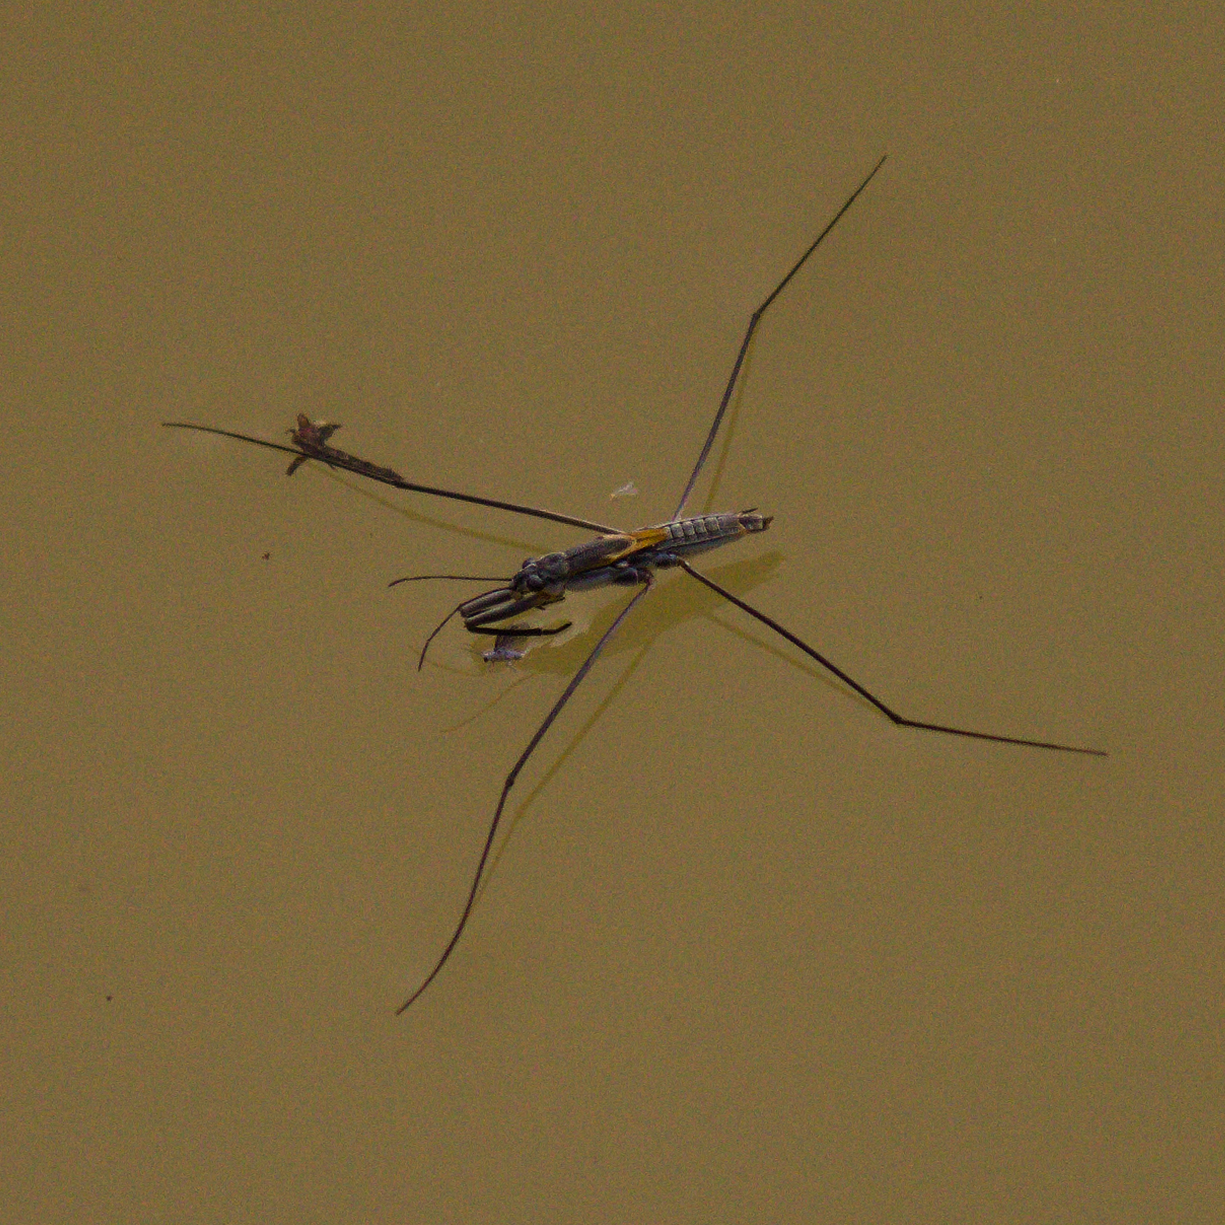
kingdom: Animalia
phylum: Arthropoda
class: Insecta
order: Hemiptera
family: Gerridae
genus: Aquarius
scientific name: Aquarius adelaidis
